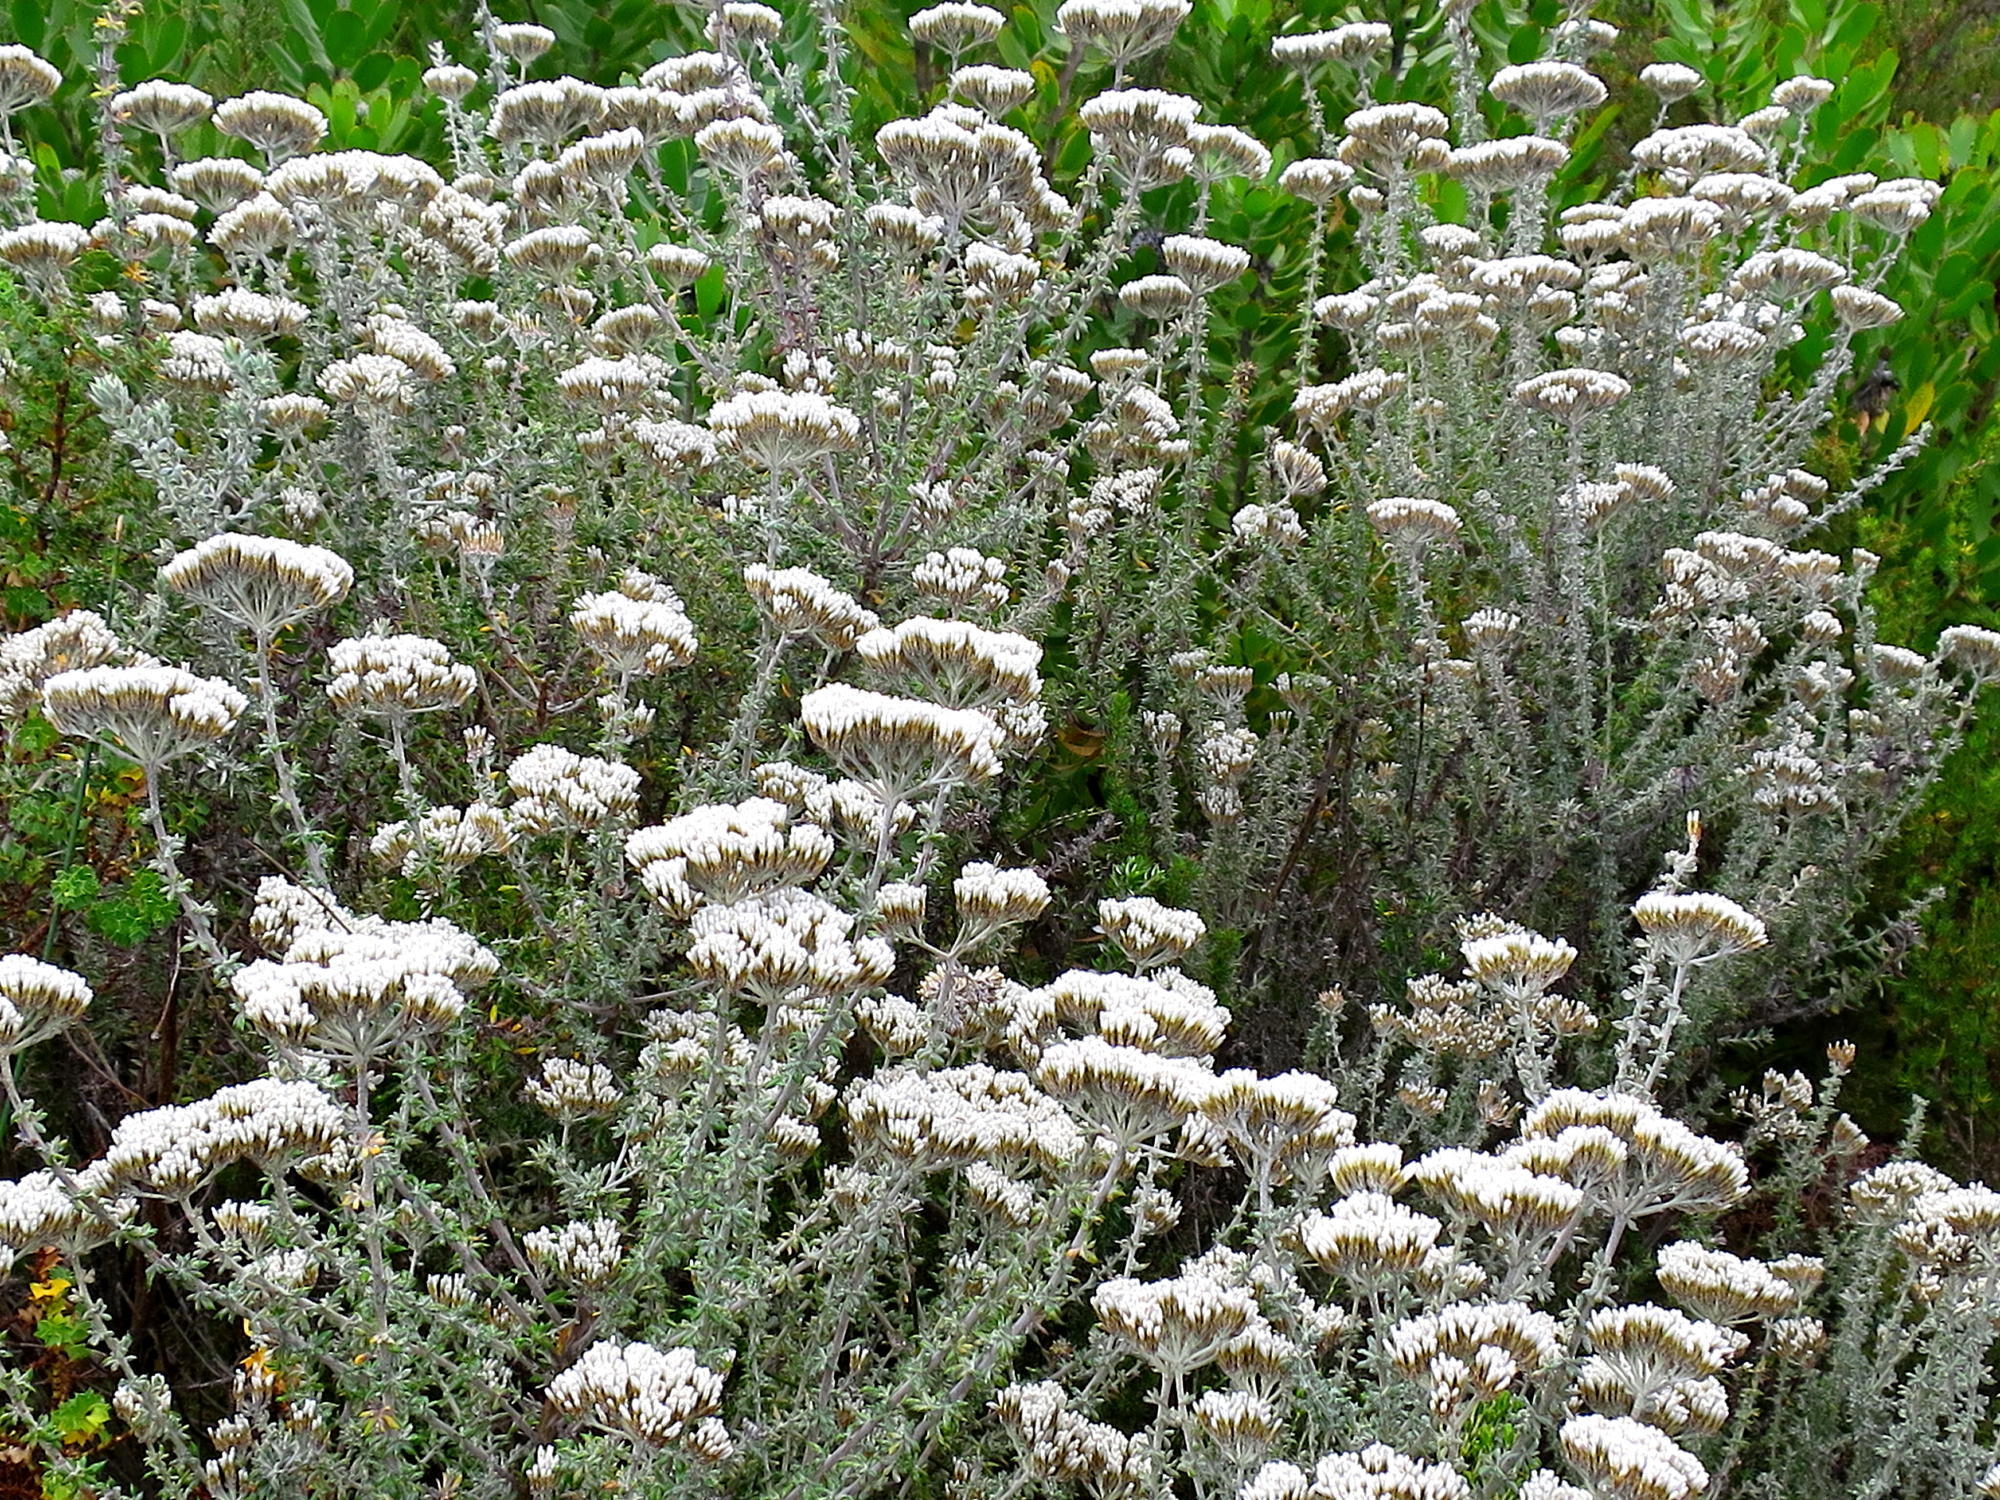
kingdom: Plantae
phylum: Tracheophyta
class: Magnoliopsida
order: Asterales
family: Asteraceae
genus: Metalasia
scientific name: Metalasia muricata
